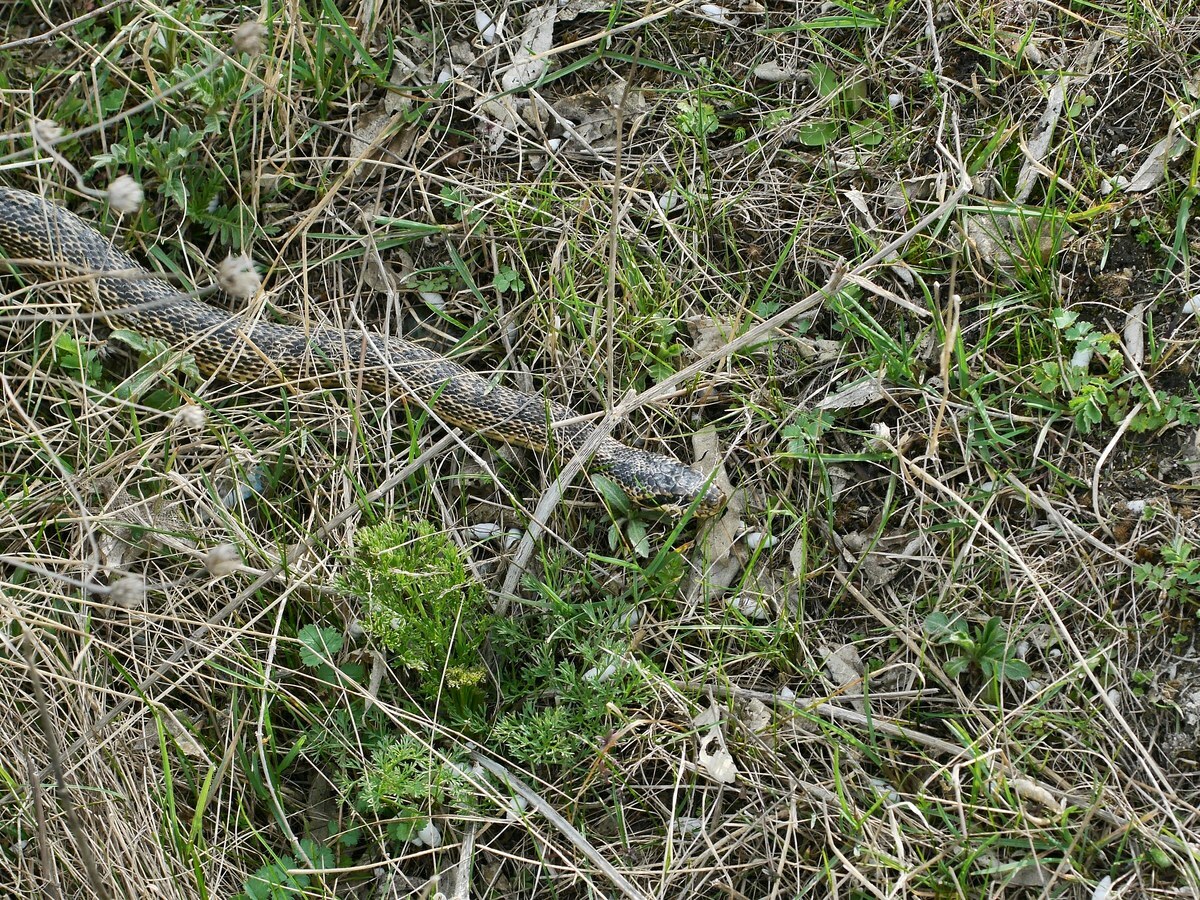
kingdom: Animalia
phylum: Chordata
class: Squamata
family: Colubridae
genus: Elaphe
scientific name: Elaphe sauromates
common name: Eastern four-lined ratsnake
